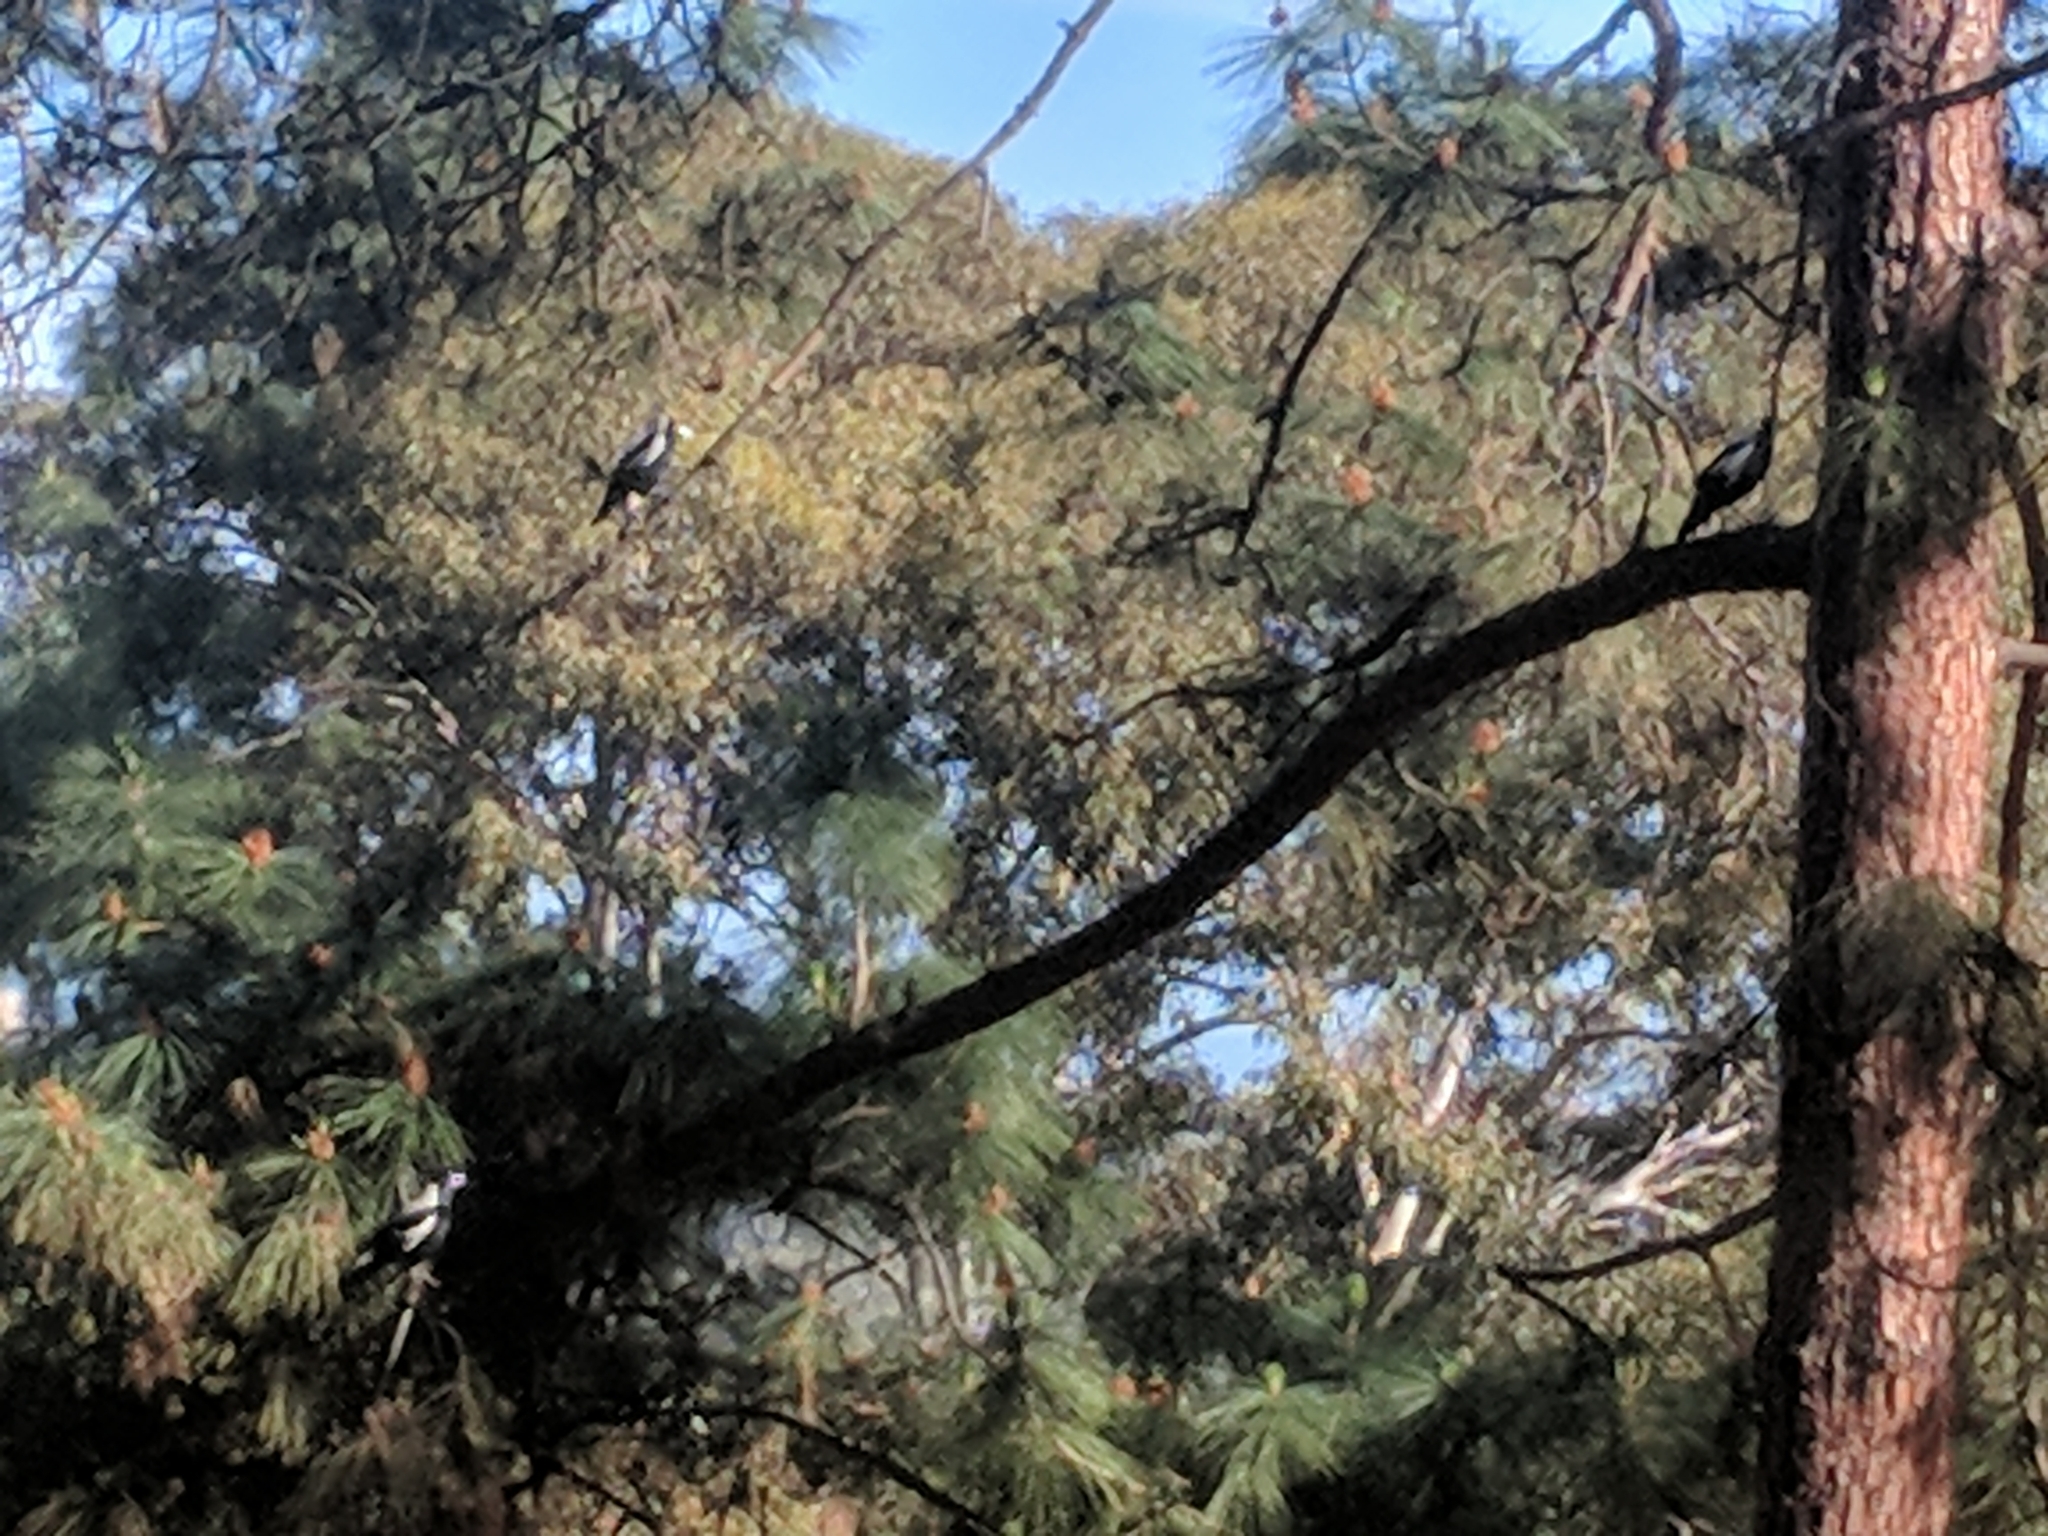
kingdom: Animalia
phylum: Chordata
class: Aves
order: Passeriformes
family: Cracticidae
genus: Gymnorhina
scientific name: Gymnorhina tibicen
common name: Australian magpie
